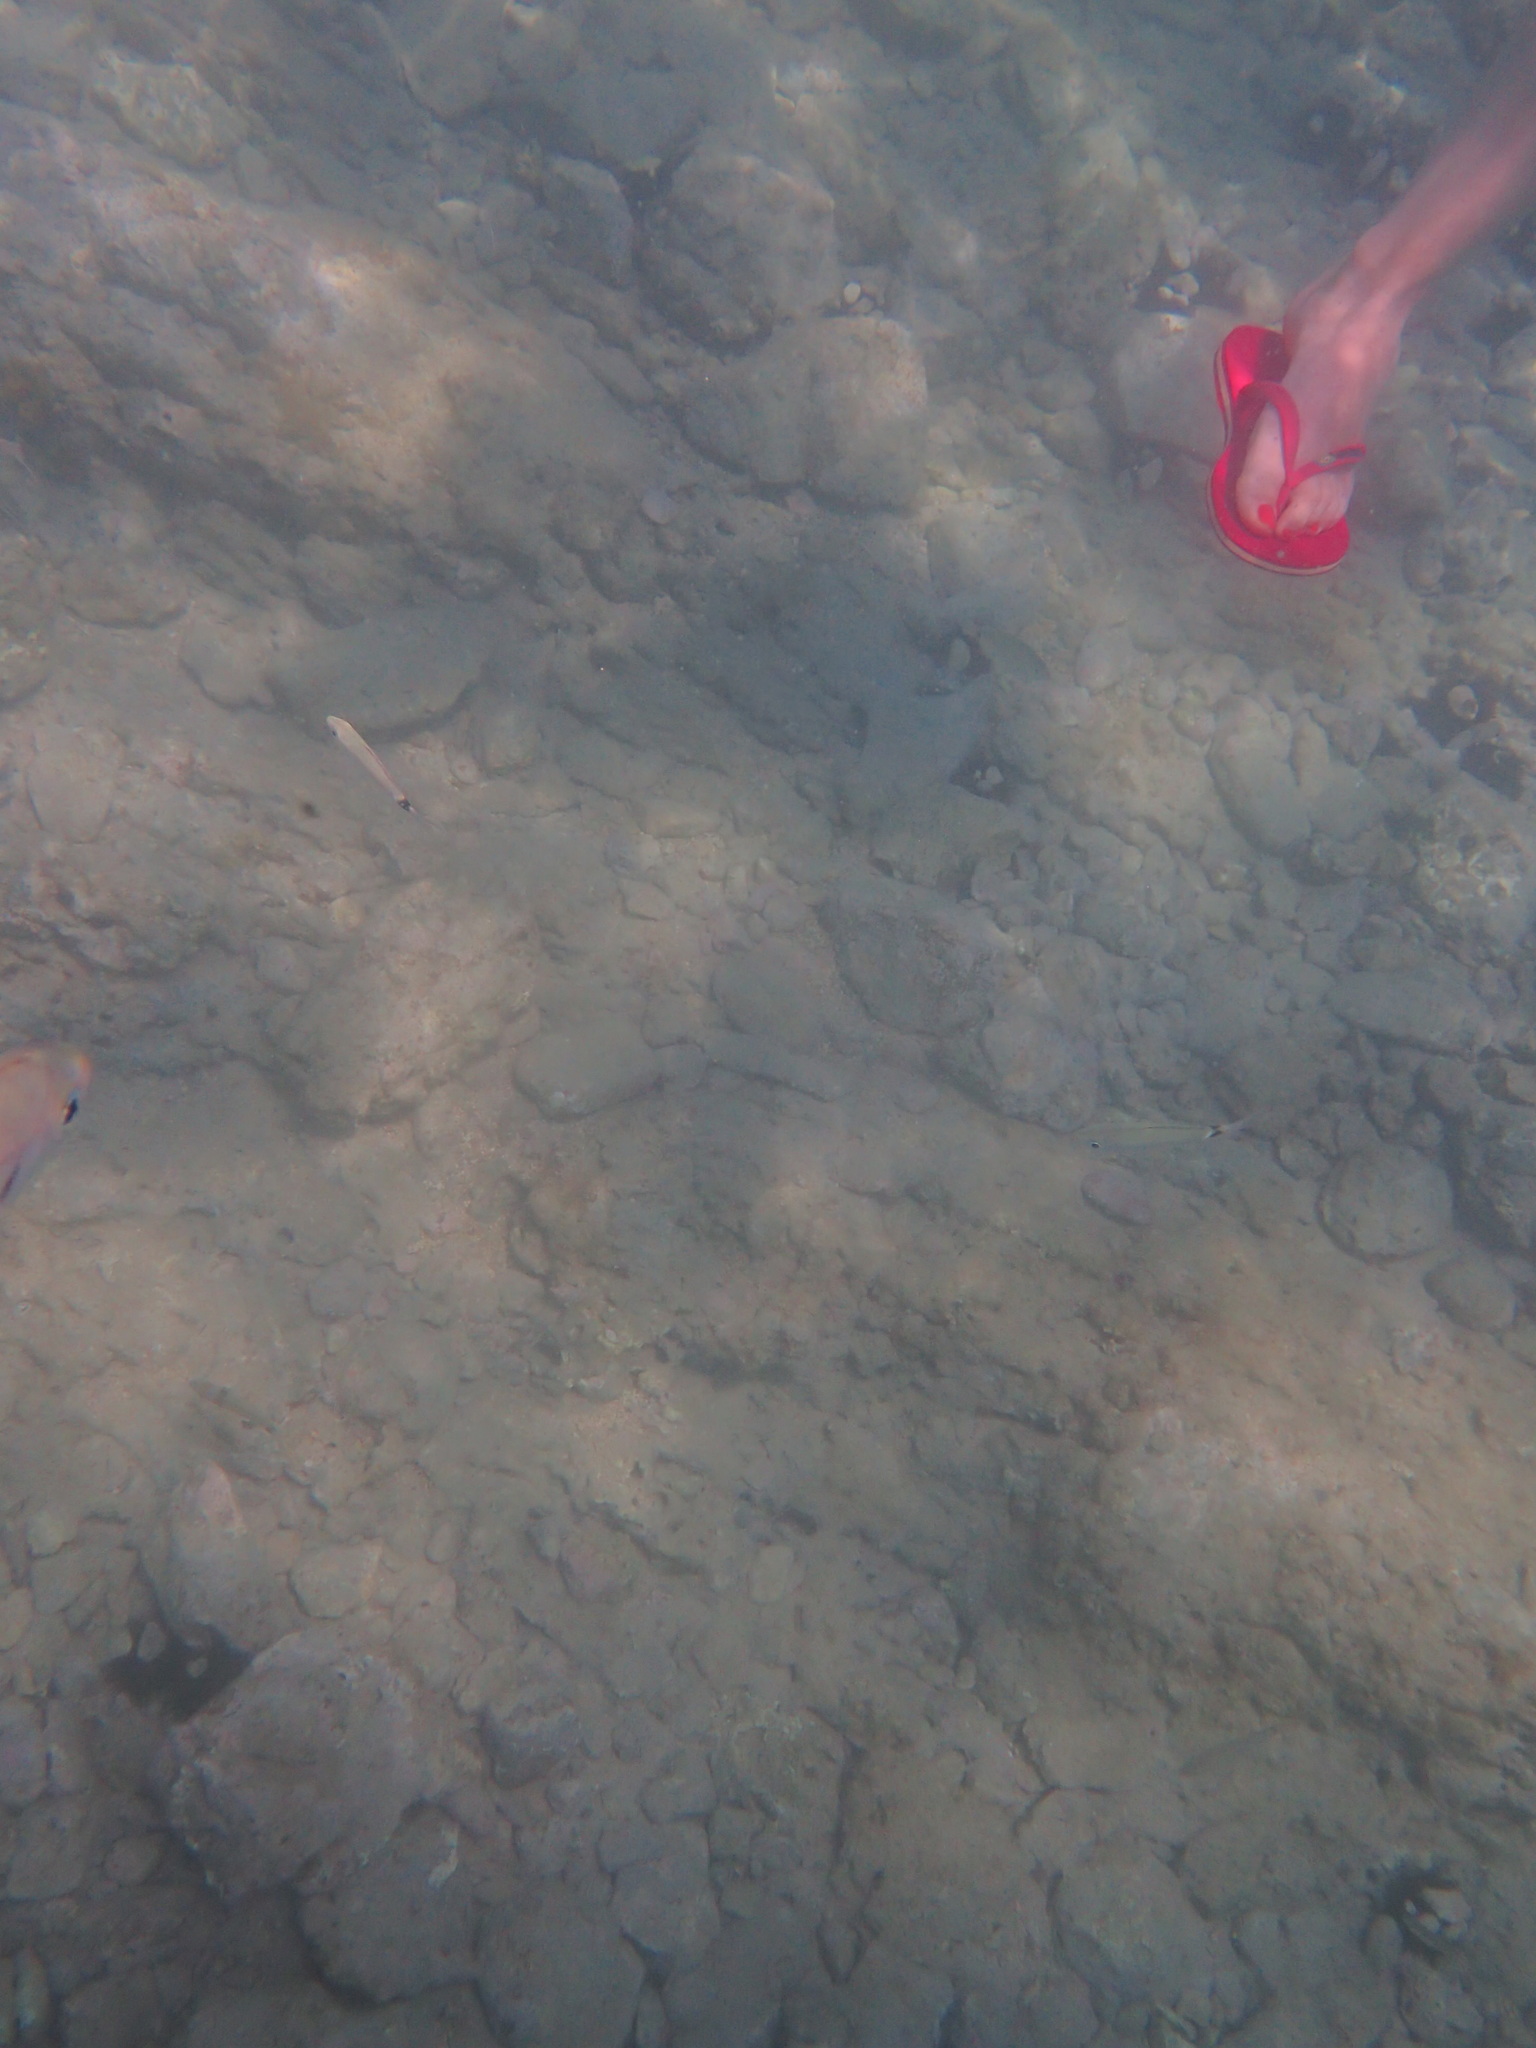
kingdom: Animalia
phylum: Chordata
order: Perciformes
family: Sparidae
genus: Oblada
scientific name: Oblada melanura
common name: Saddled seabream
